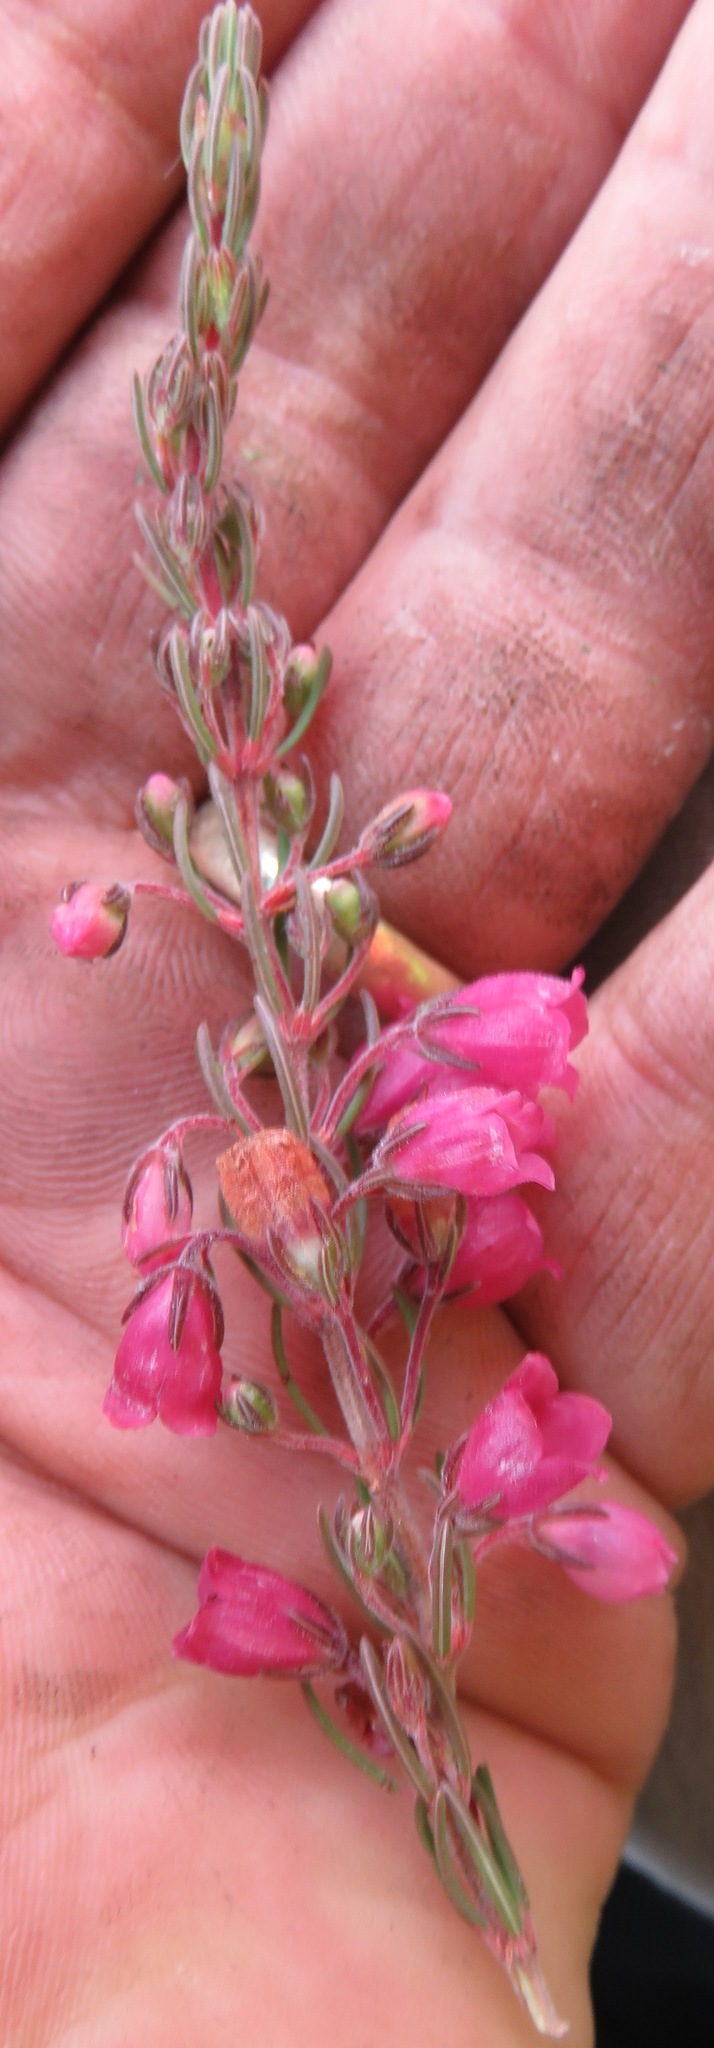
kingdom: Plantae
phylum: Tracheophyta
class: Magnoliopsida
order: Ericales
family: Ericaceae
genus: Erica
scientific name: Erica viscaria
